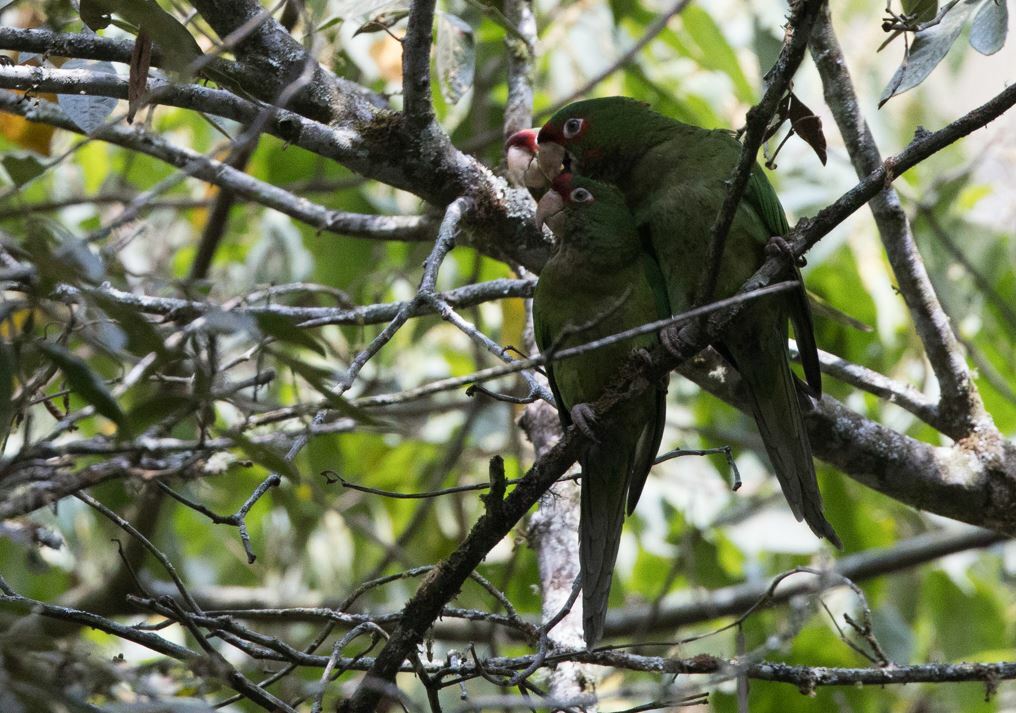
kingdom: Animalia
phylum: Chordata
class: Aves
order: Psittaciformes
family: Psittacidae
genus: Aratinga
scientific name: Aratinga mitrata
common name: Mitred parakeet
